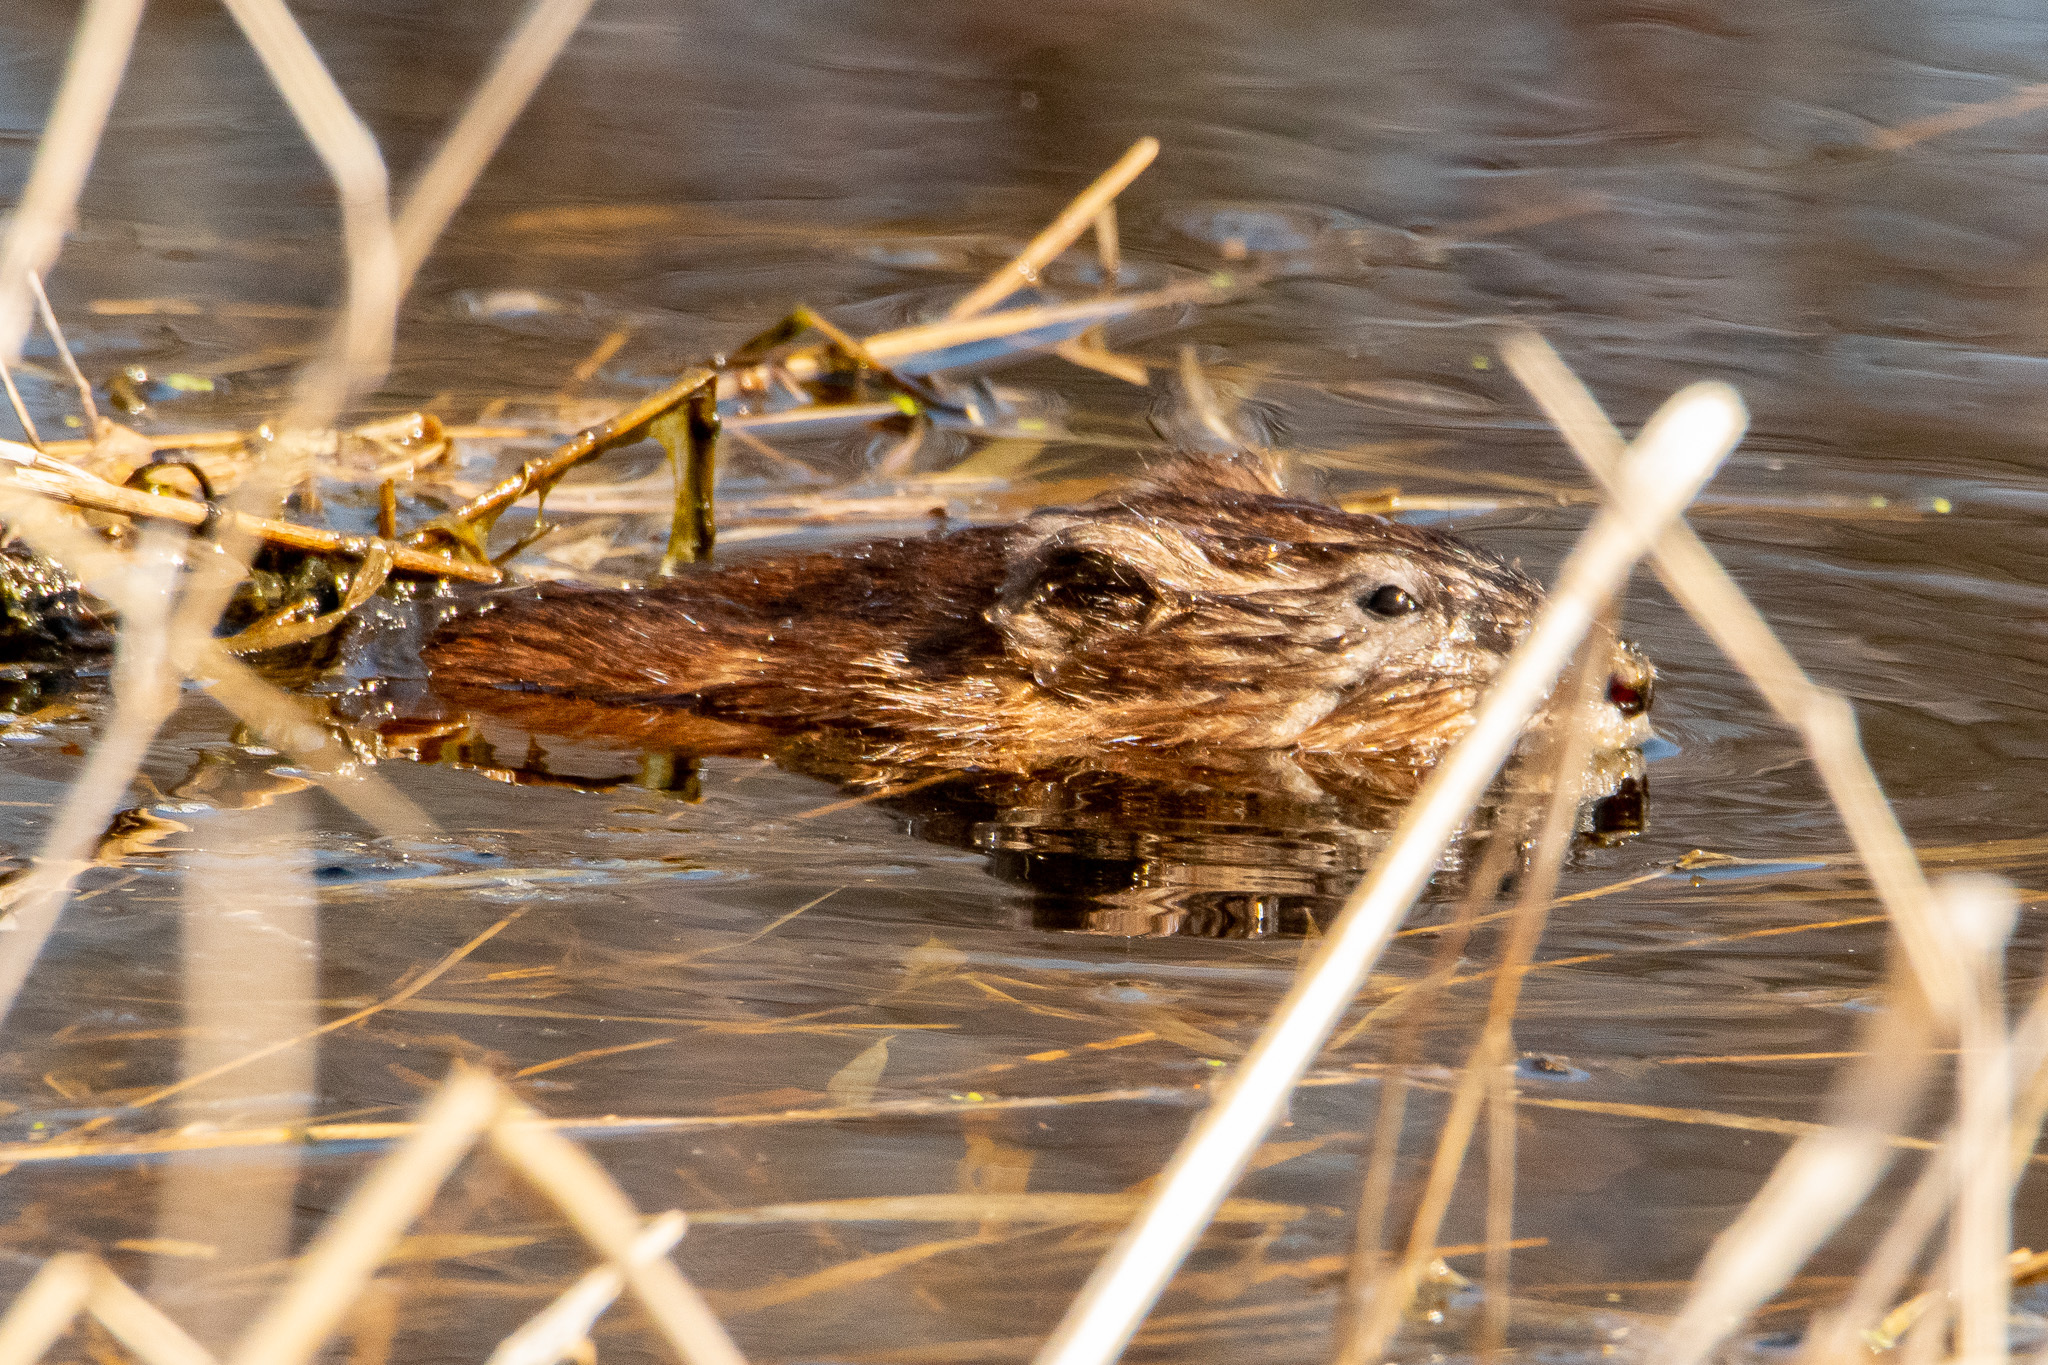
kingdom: Animalia
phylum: Chordata
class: Mammalia
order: Rodentia
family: Cricetidae
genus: Ondatra
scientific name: Ondatra zibethicus
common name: Muskrat
